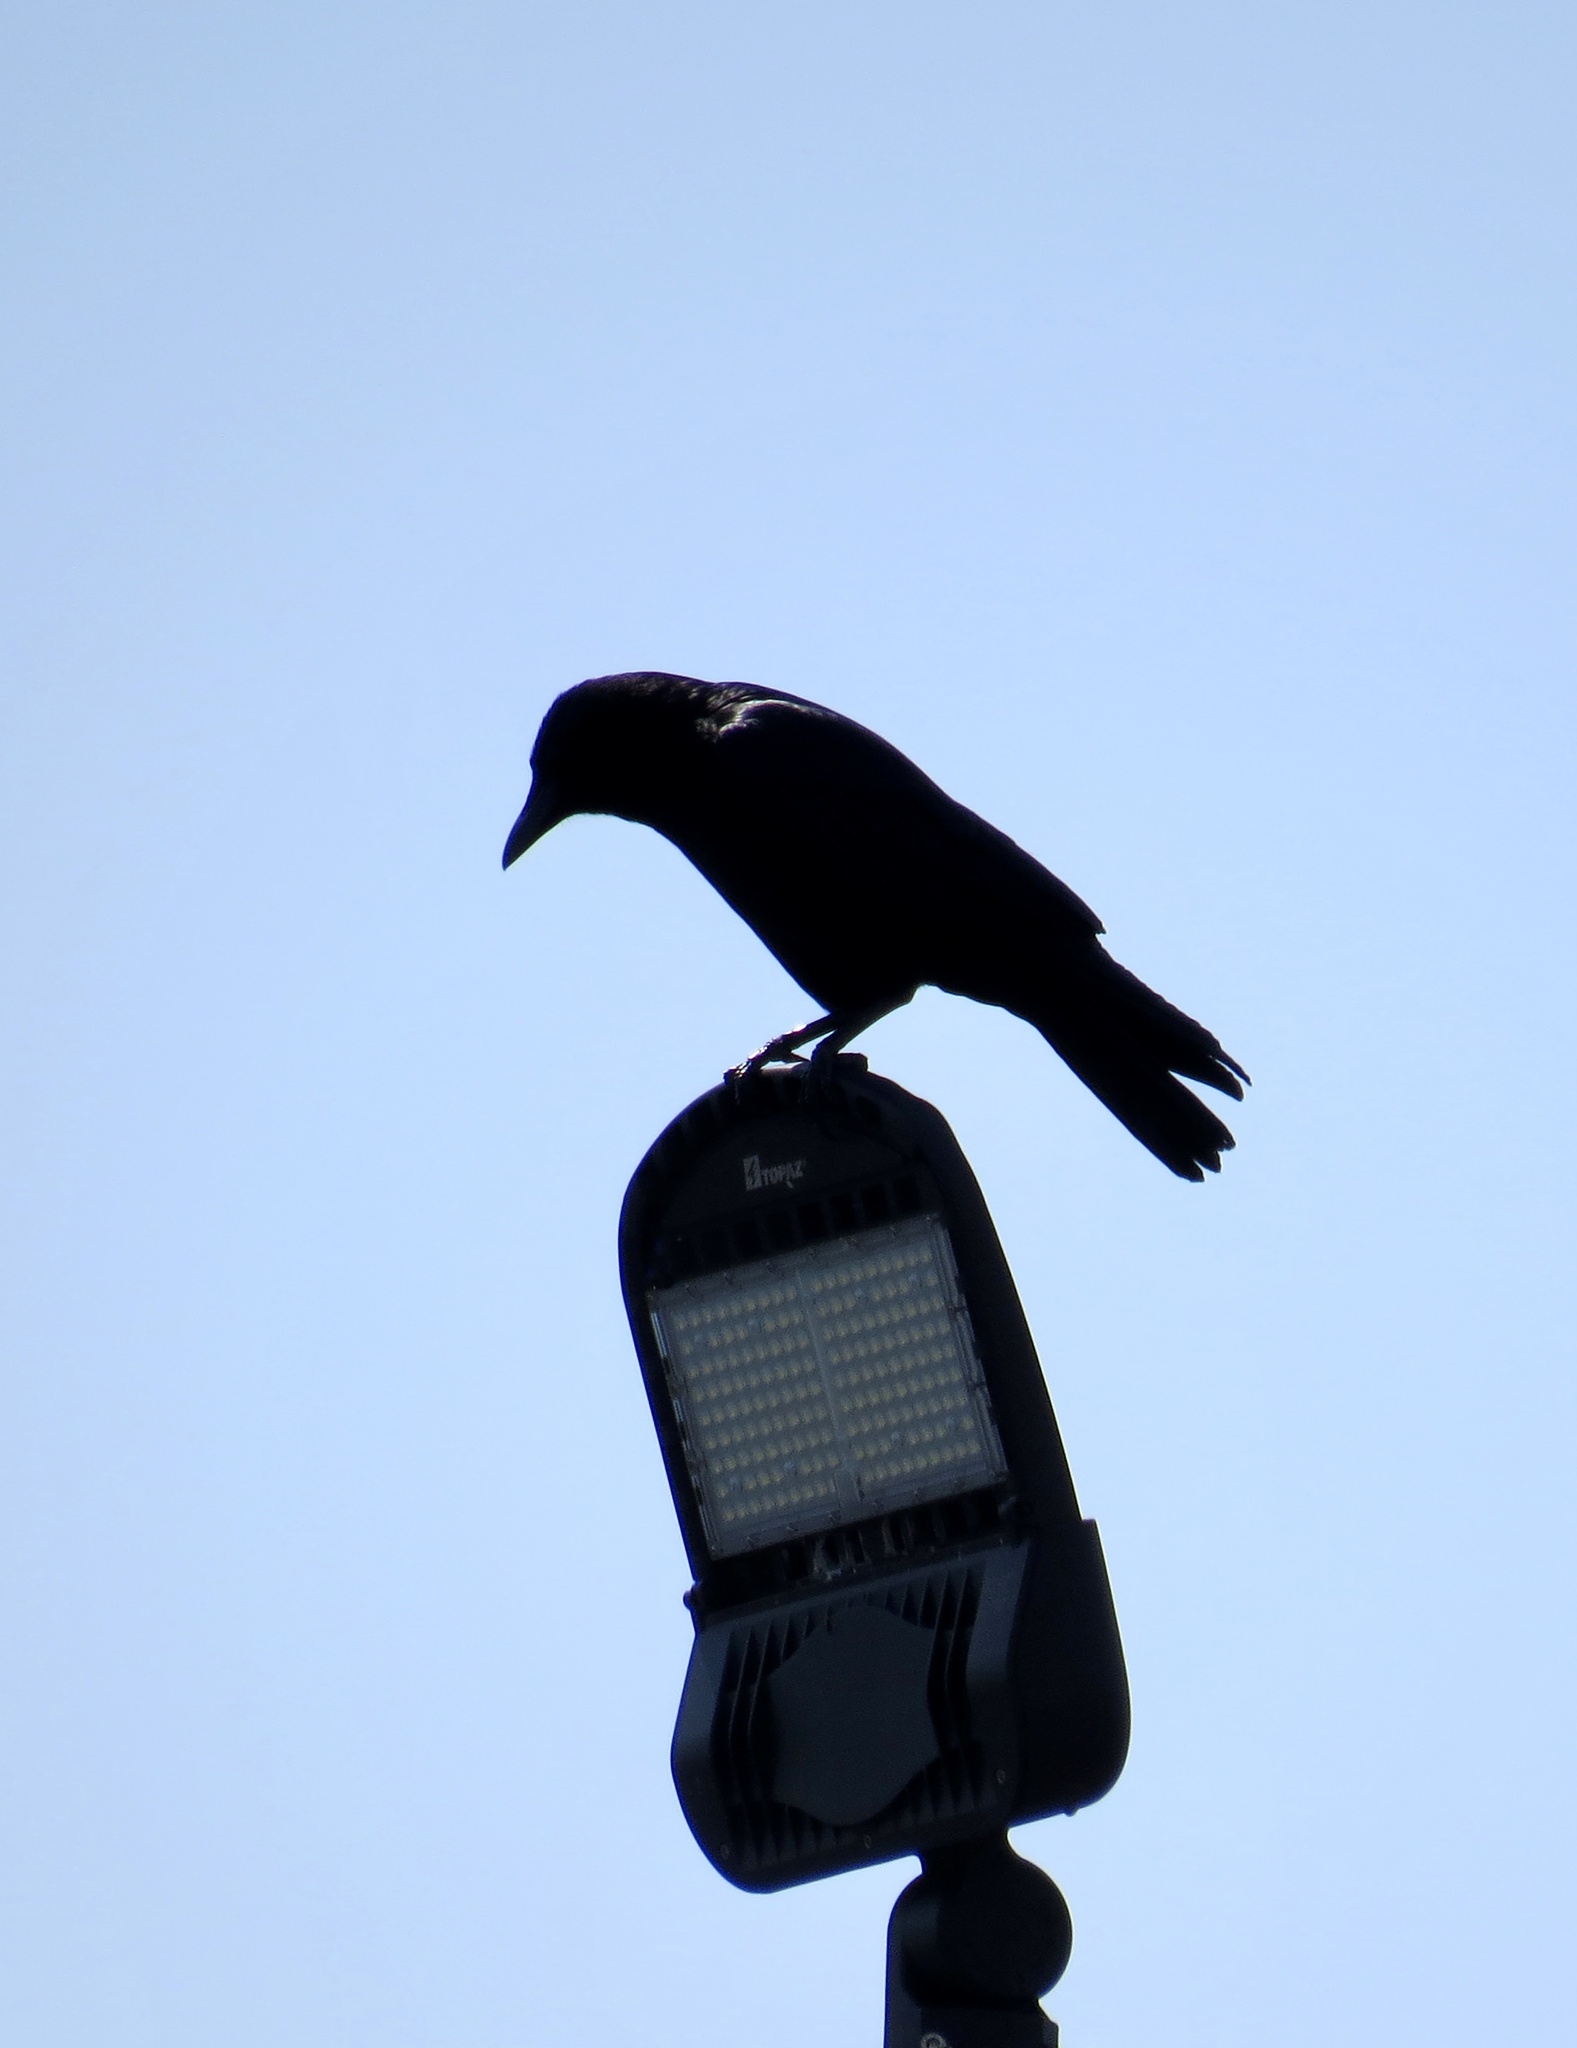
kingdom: Animalia
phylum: Chordata
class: Aves
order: Passeriformes
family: Corvidae
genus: Corvus
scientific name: Corvus brachyrhynchos
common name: American crow
